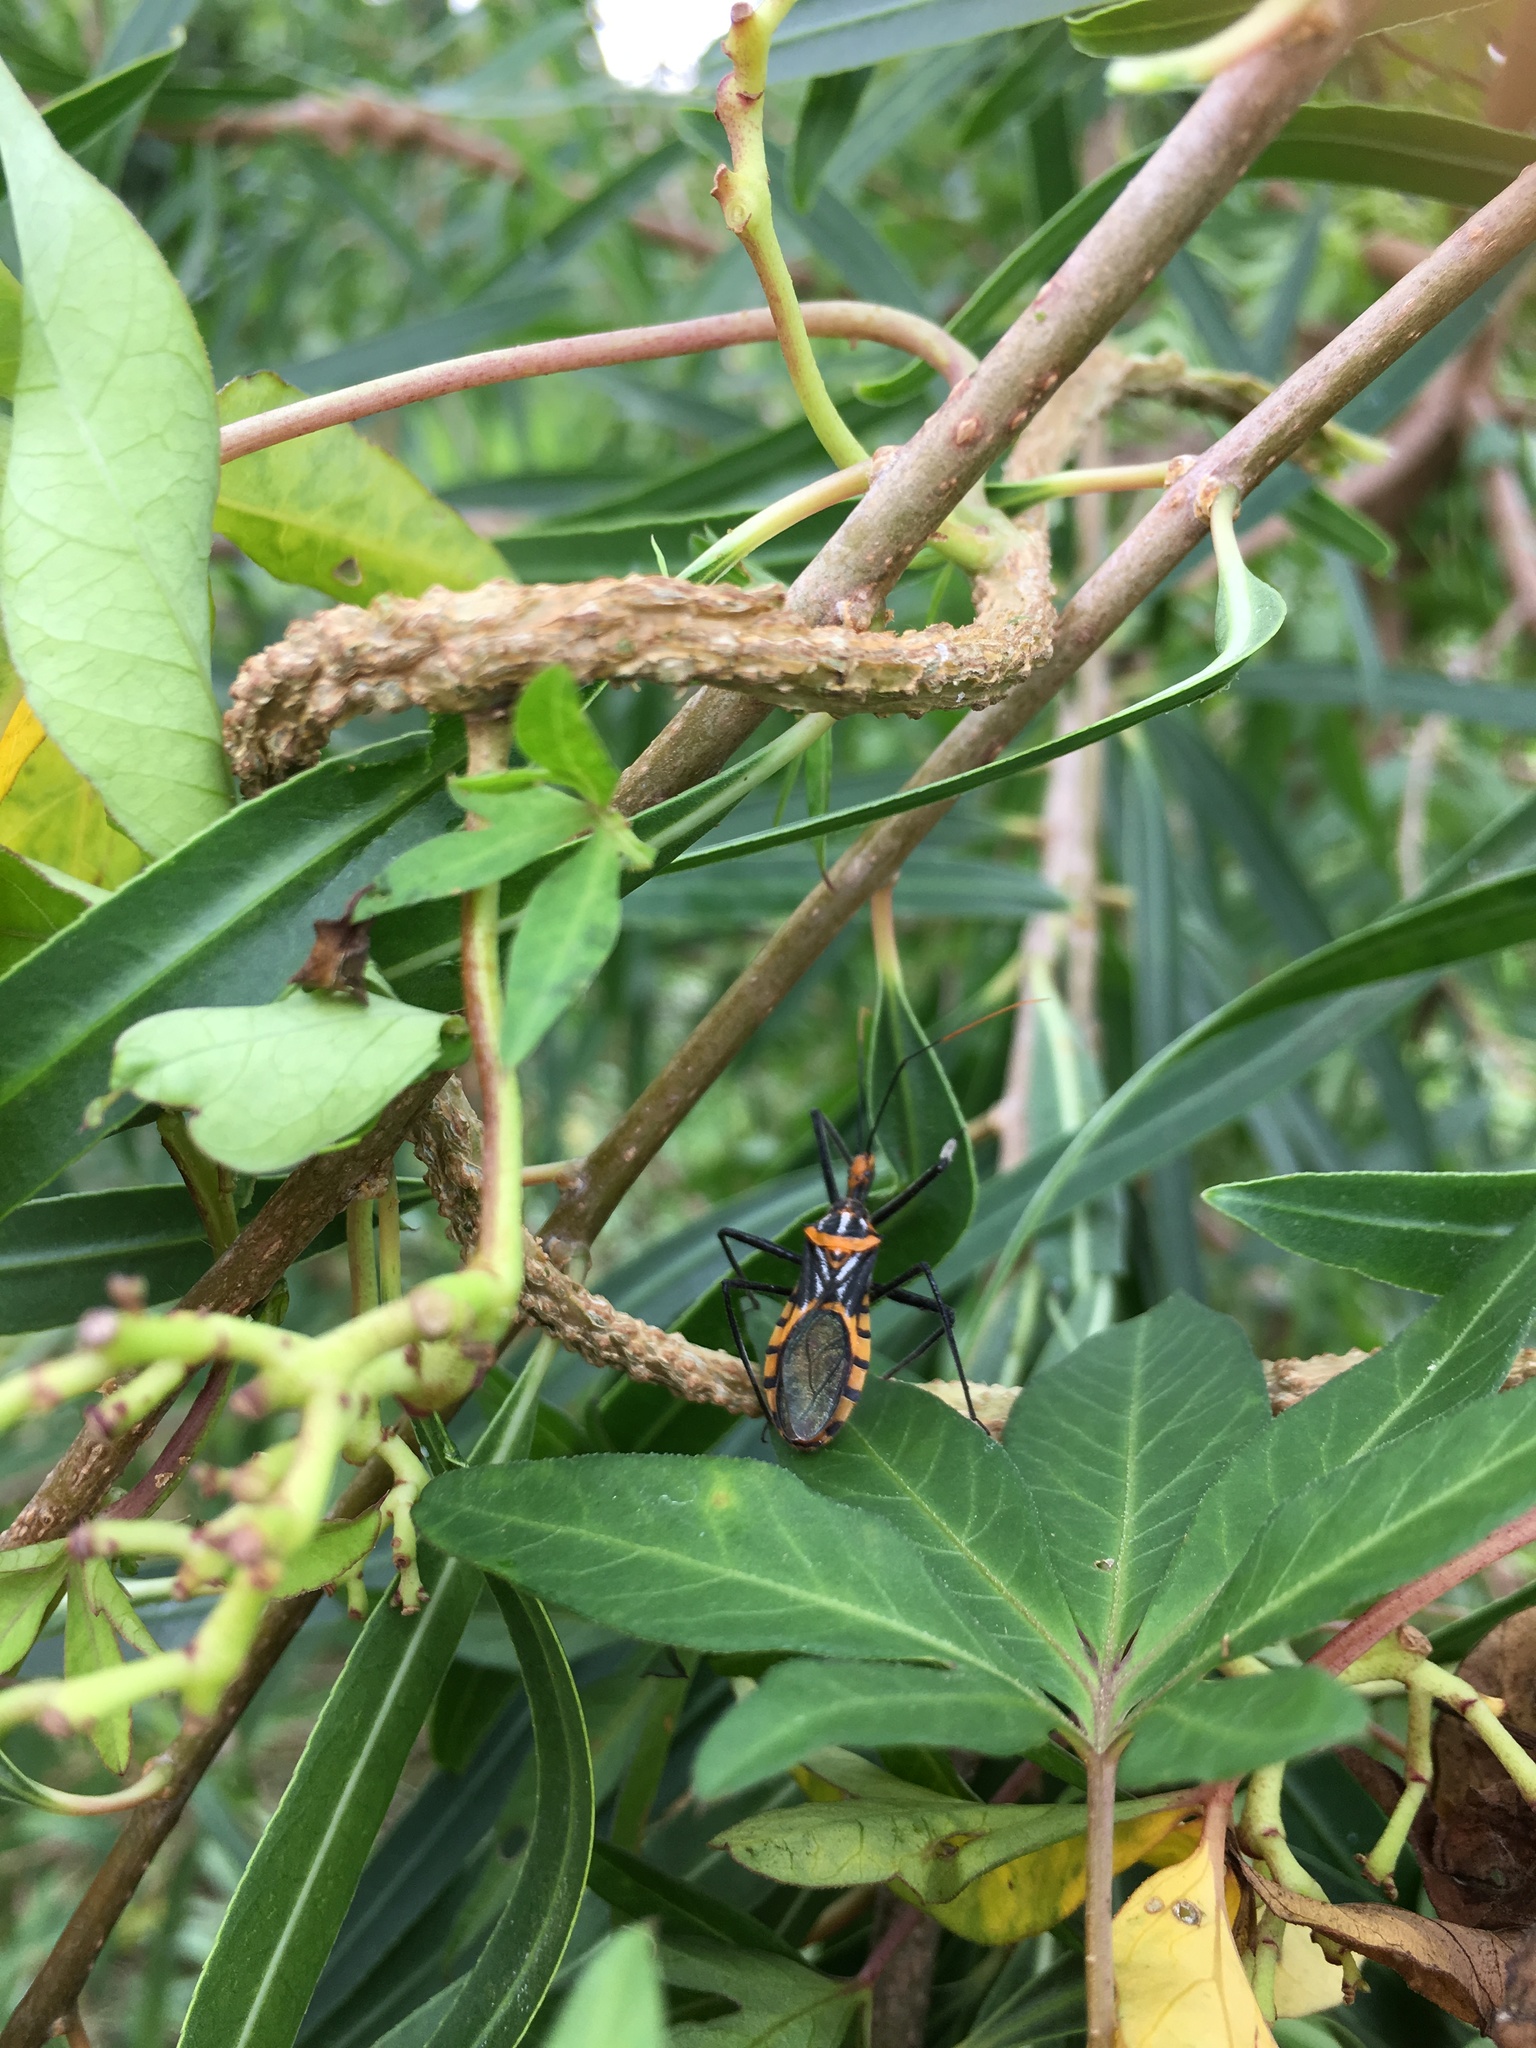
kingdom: Animalia
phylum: Arthropoda
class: Insecta
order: Hemiptera
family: Reduviidae
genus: Zelus
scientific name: Zelus leucogrammus
